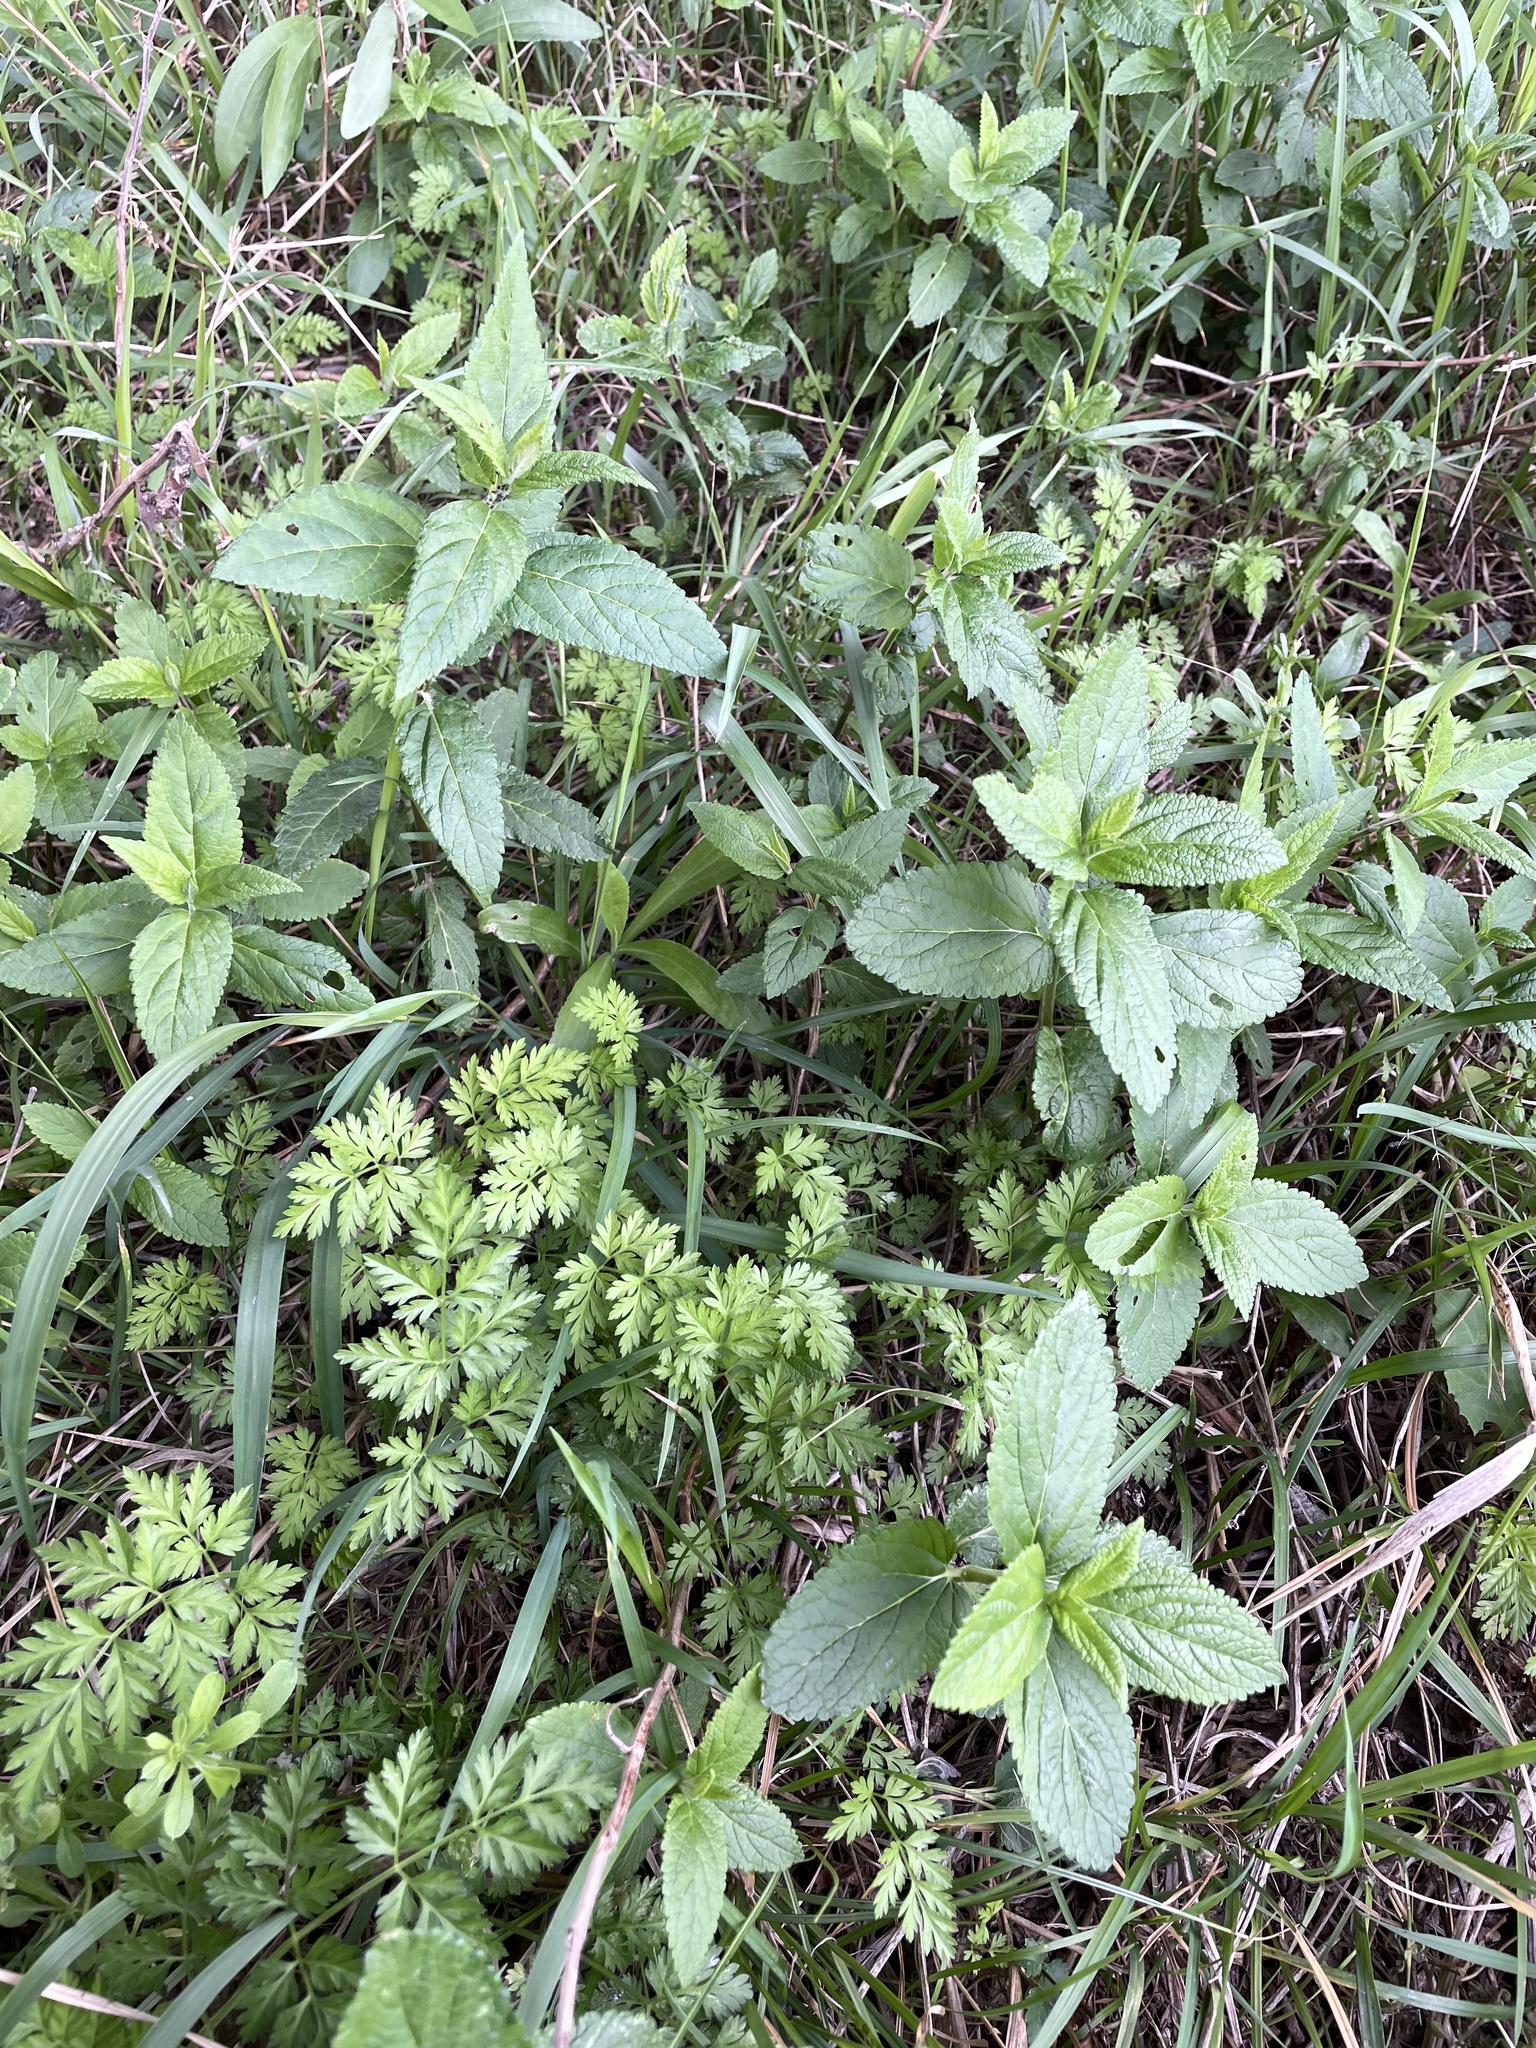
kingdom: Plantae
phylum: Tracheophyta
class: Magnoliopsida
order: Lamiales
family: Lamiaceae
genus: Teucrium
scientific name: Teucrium canadense
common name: American germander
